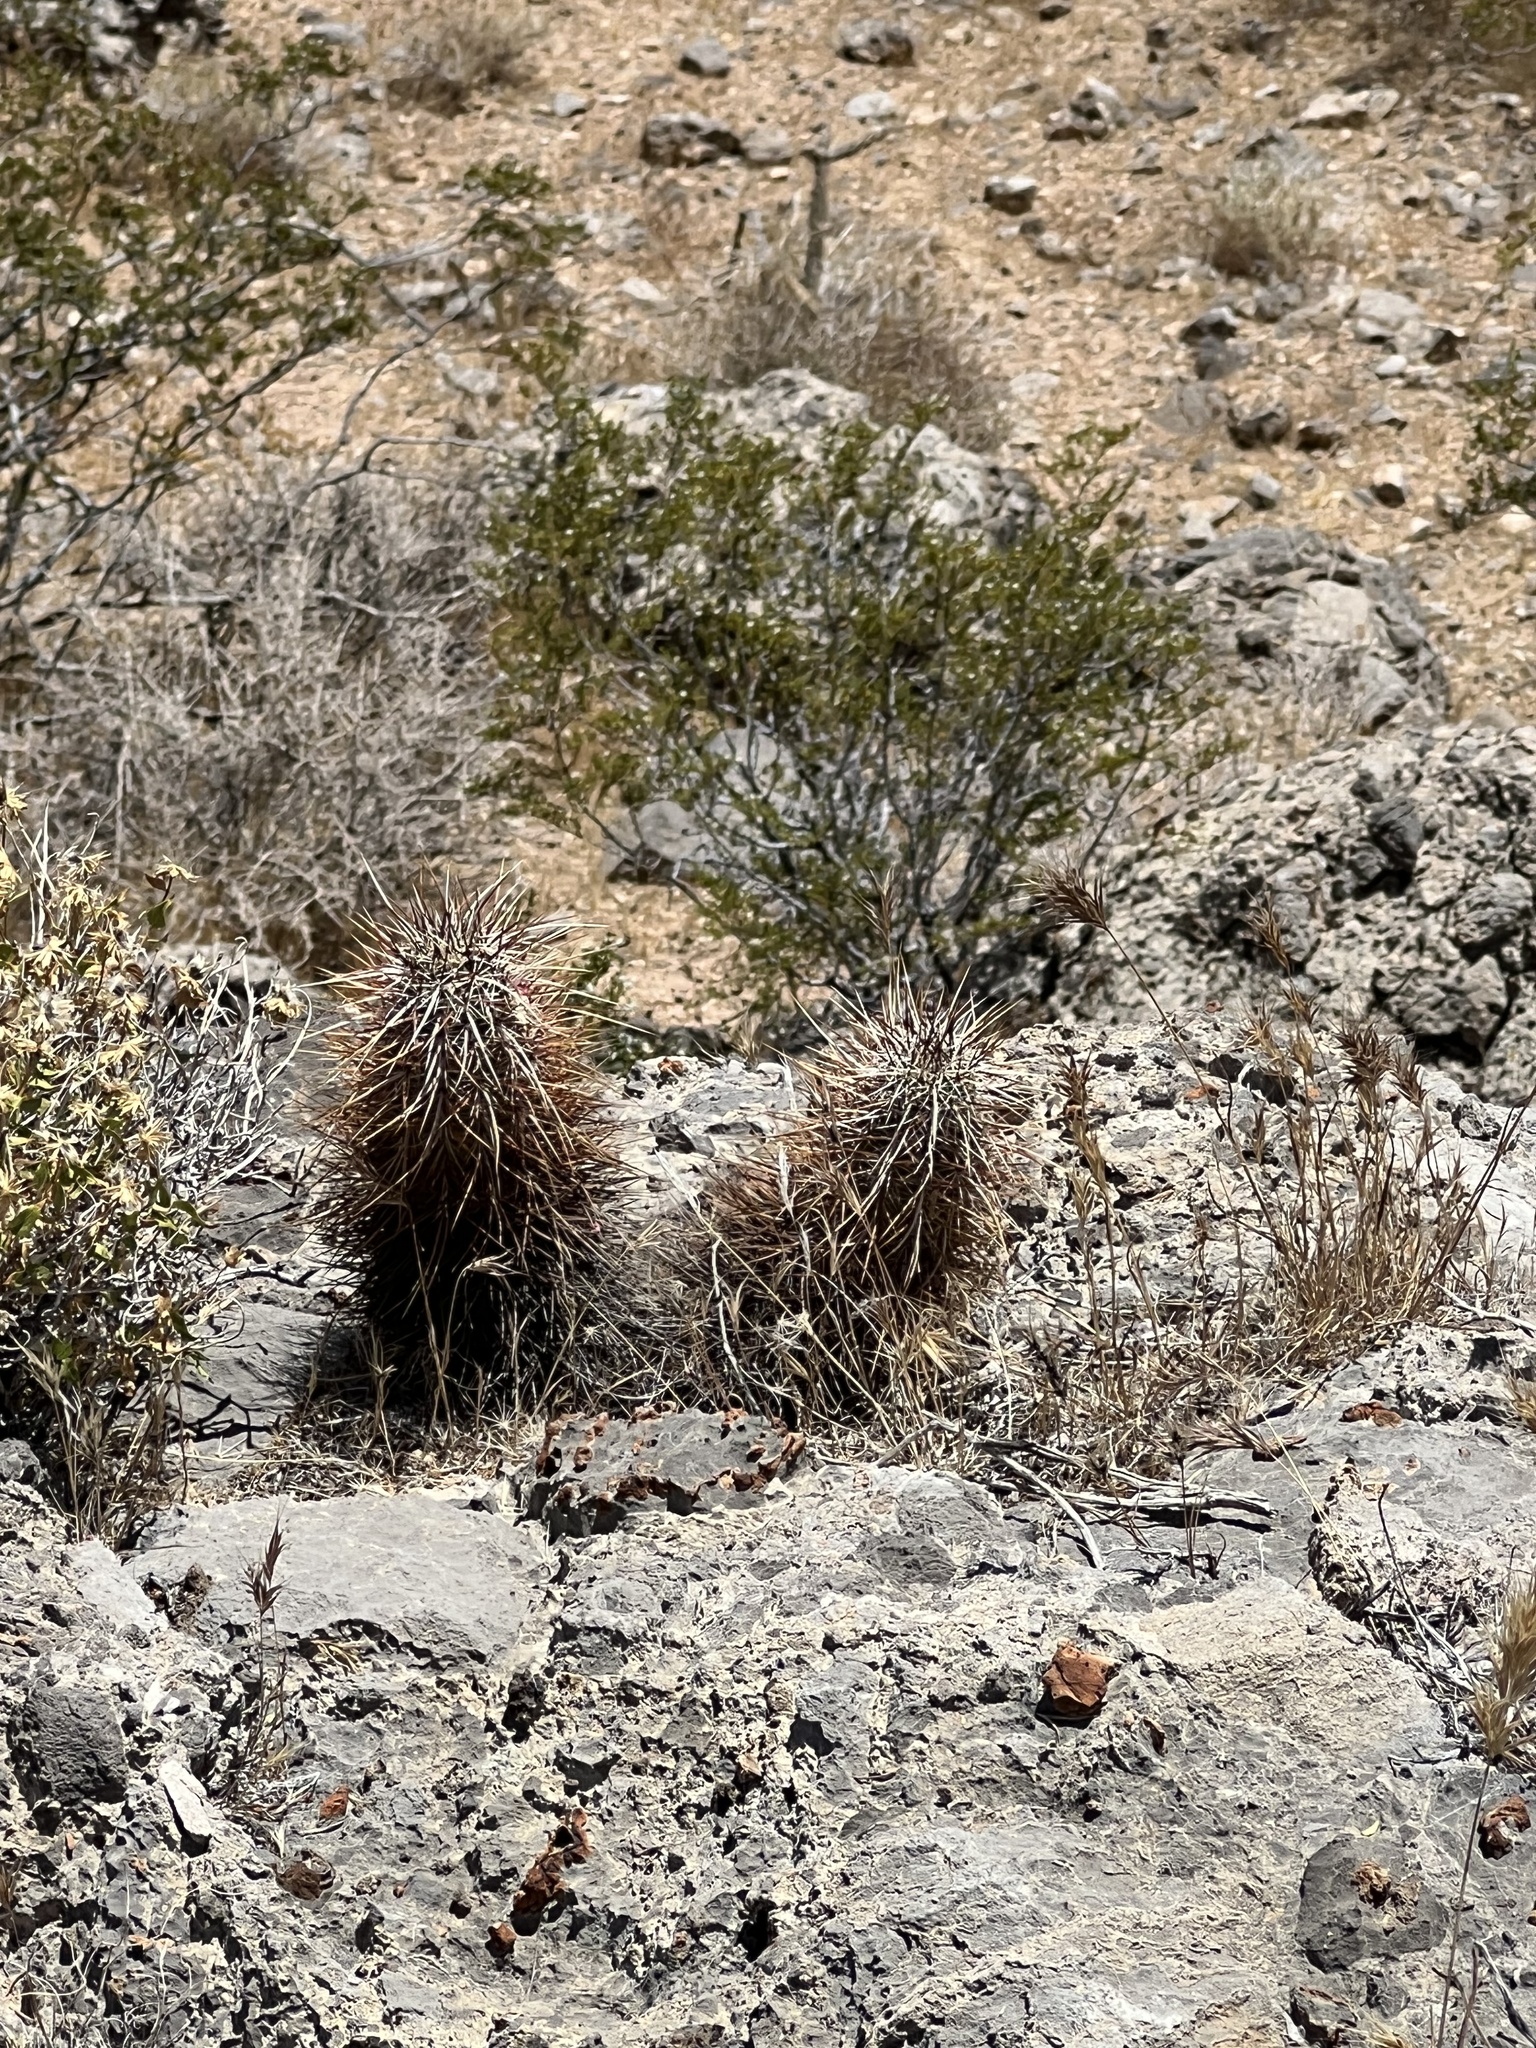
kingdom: Plantae
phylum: Tracheophyta
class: Magnoliopsida
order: Caryophyllales
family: Cactaceae
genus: Echinocereus
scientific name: Echinocereus engelmannii
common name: Engelmann's hedgehog cactus
